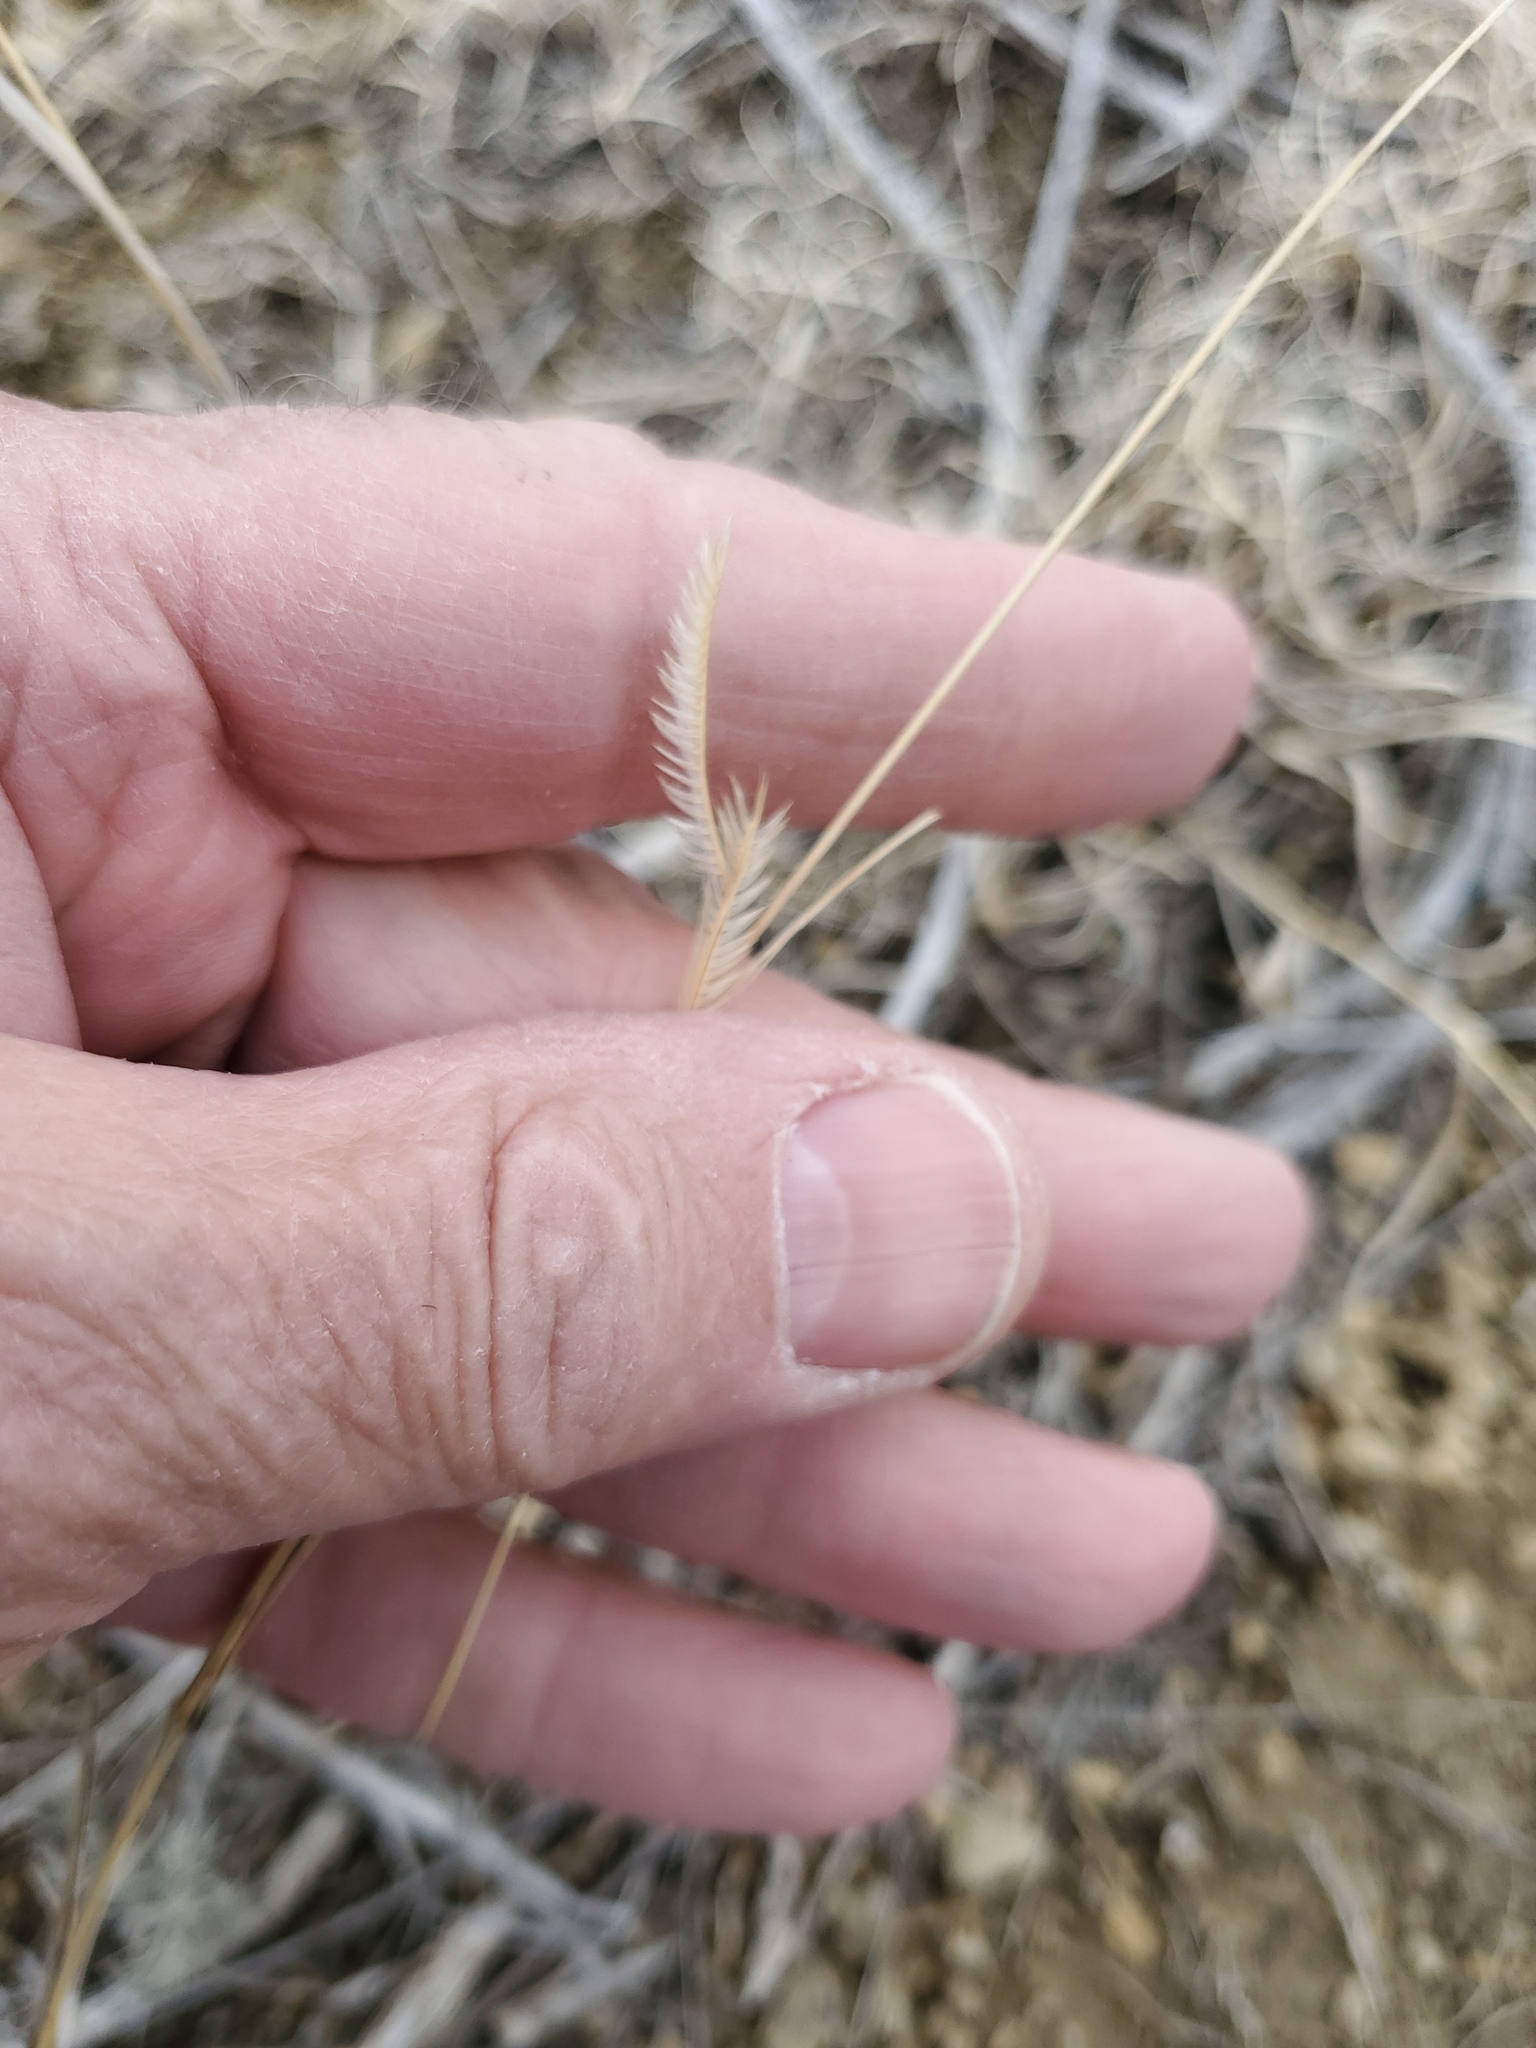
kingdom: Plantae
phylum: Tracheophyta
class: Liliopsida
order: Poales
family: Poaceae
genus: Bouteloua
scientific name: Bouteloua gracilis
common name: Blue grama
